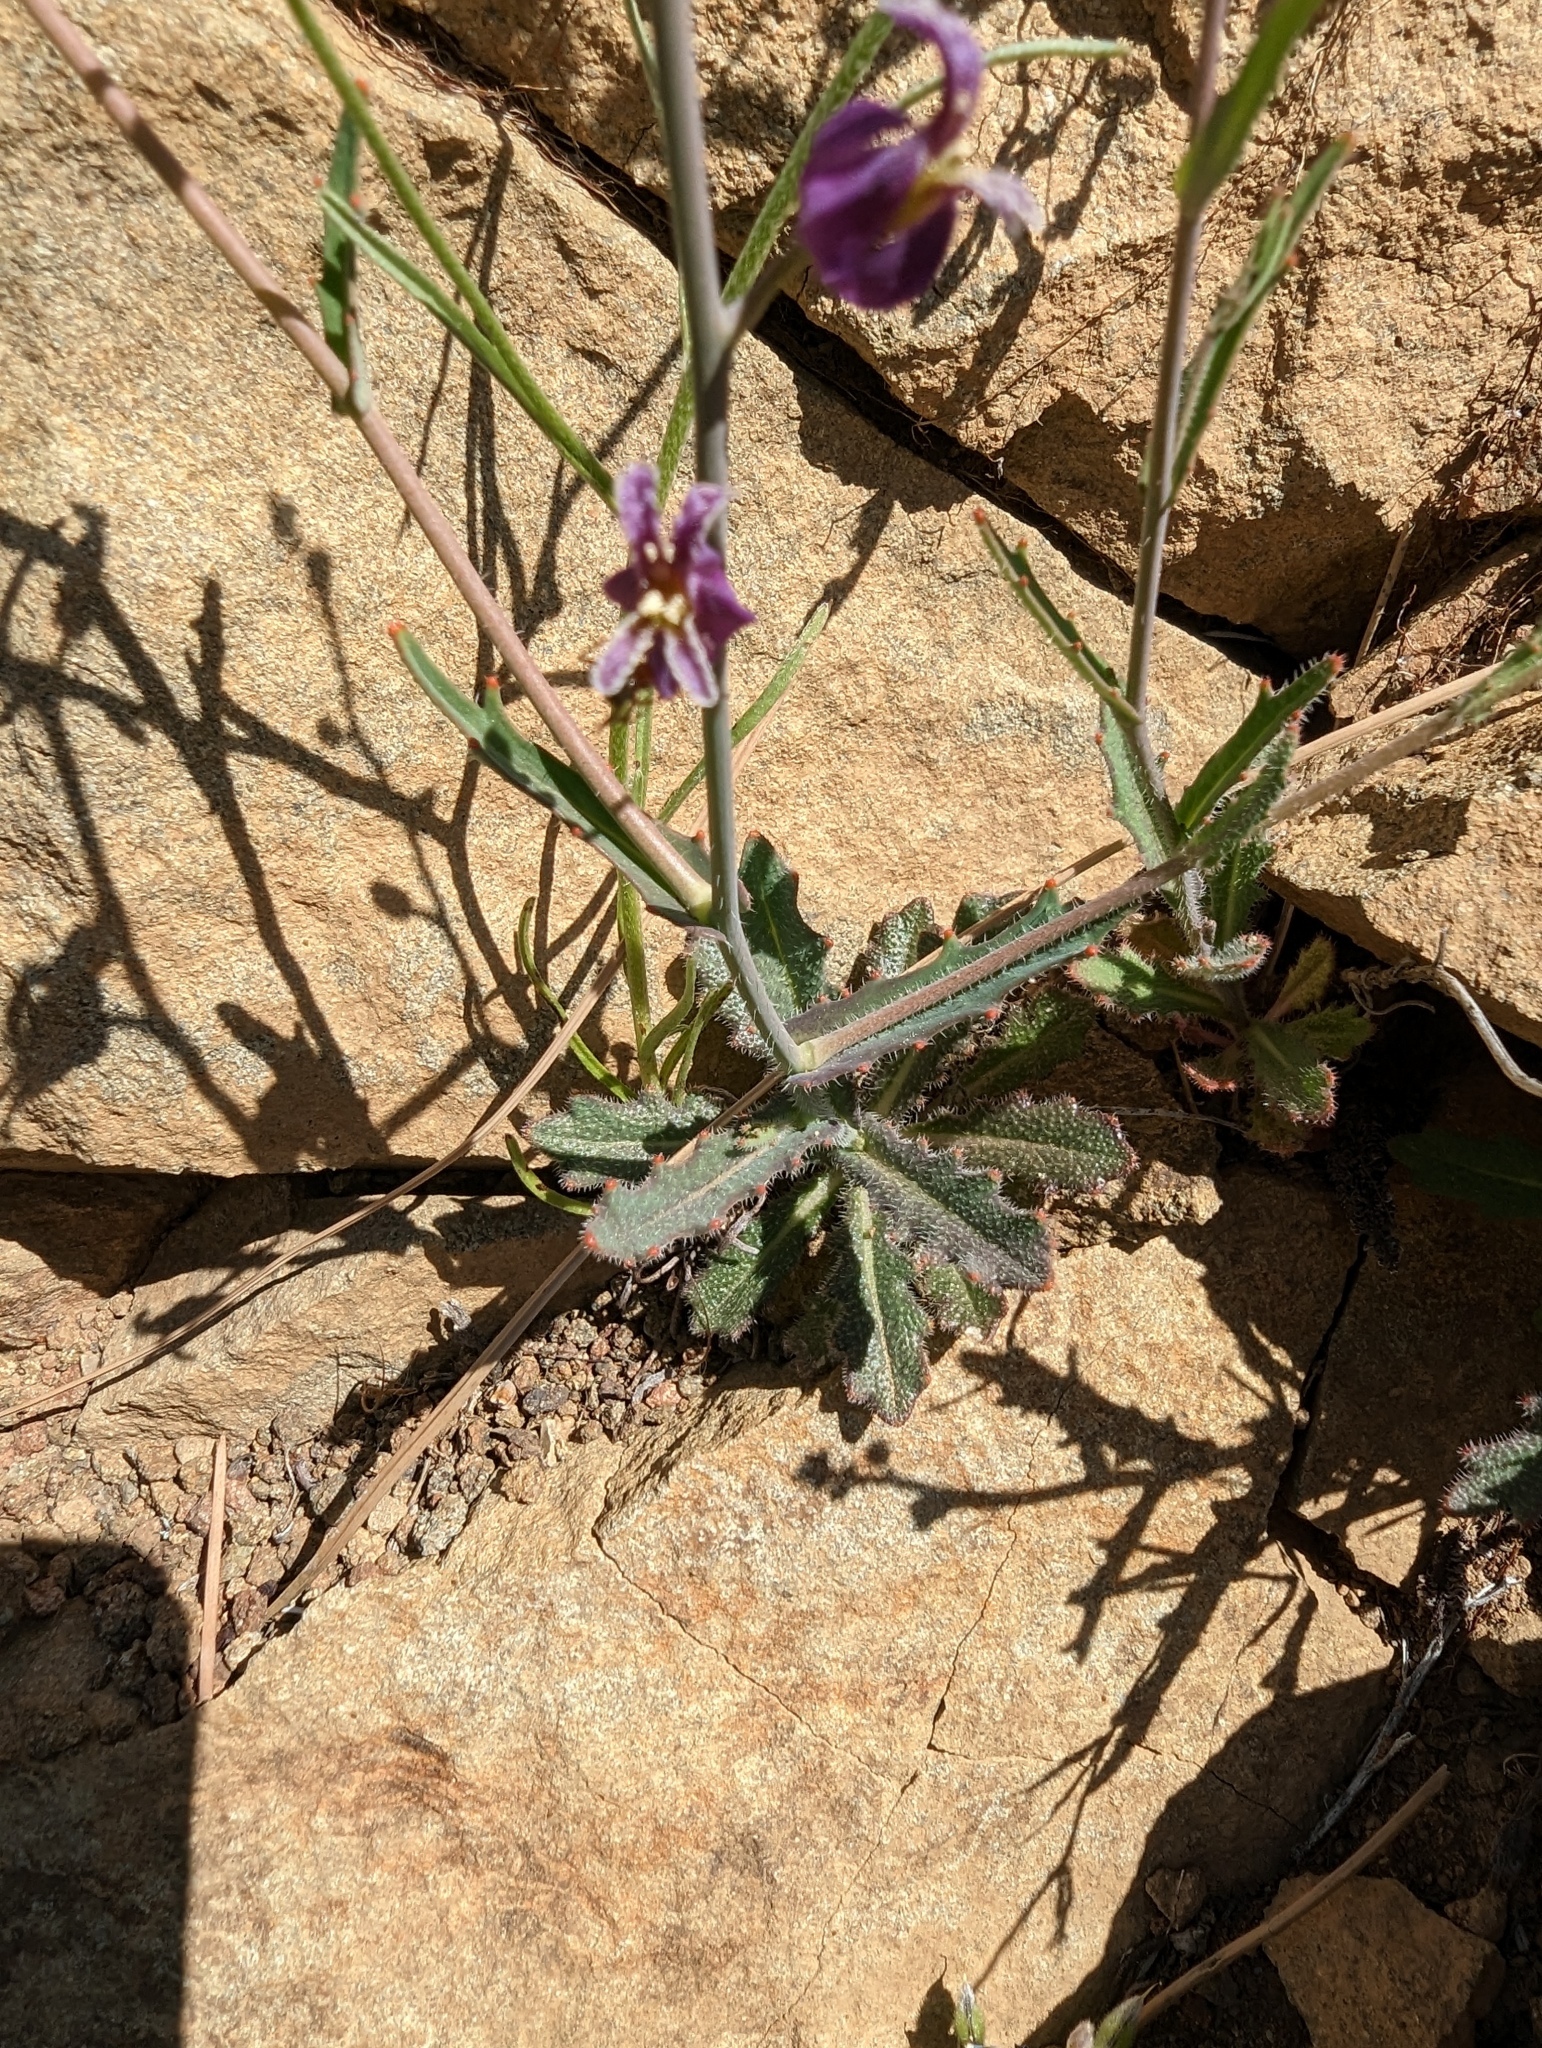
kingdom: Plantae
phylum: Tracheophyta
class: Magnoliopsida
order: Brassicales
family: Brassicaceae
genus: Streptanthus
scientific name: Streptanthus glandulosus
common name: Jewel-flower
